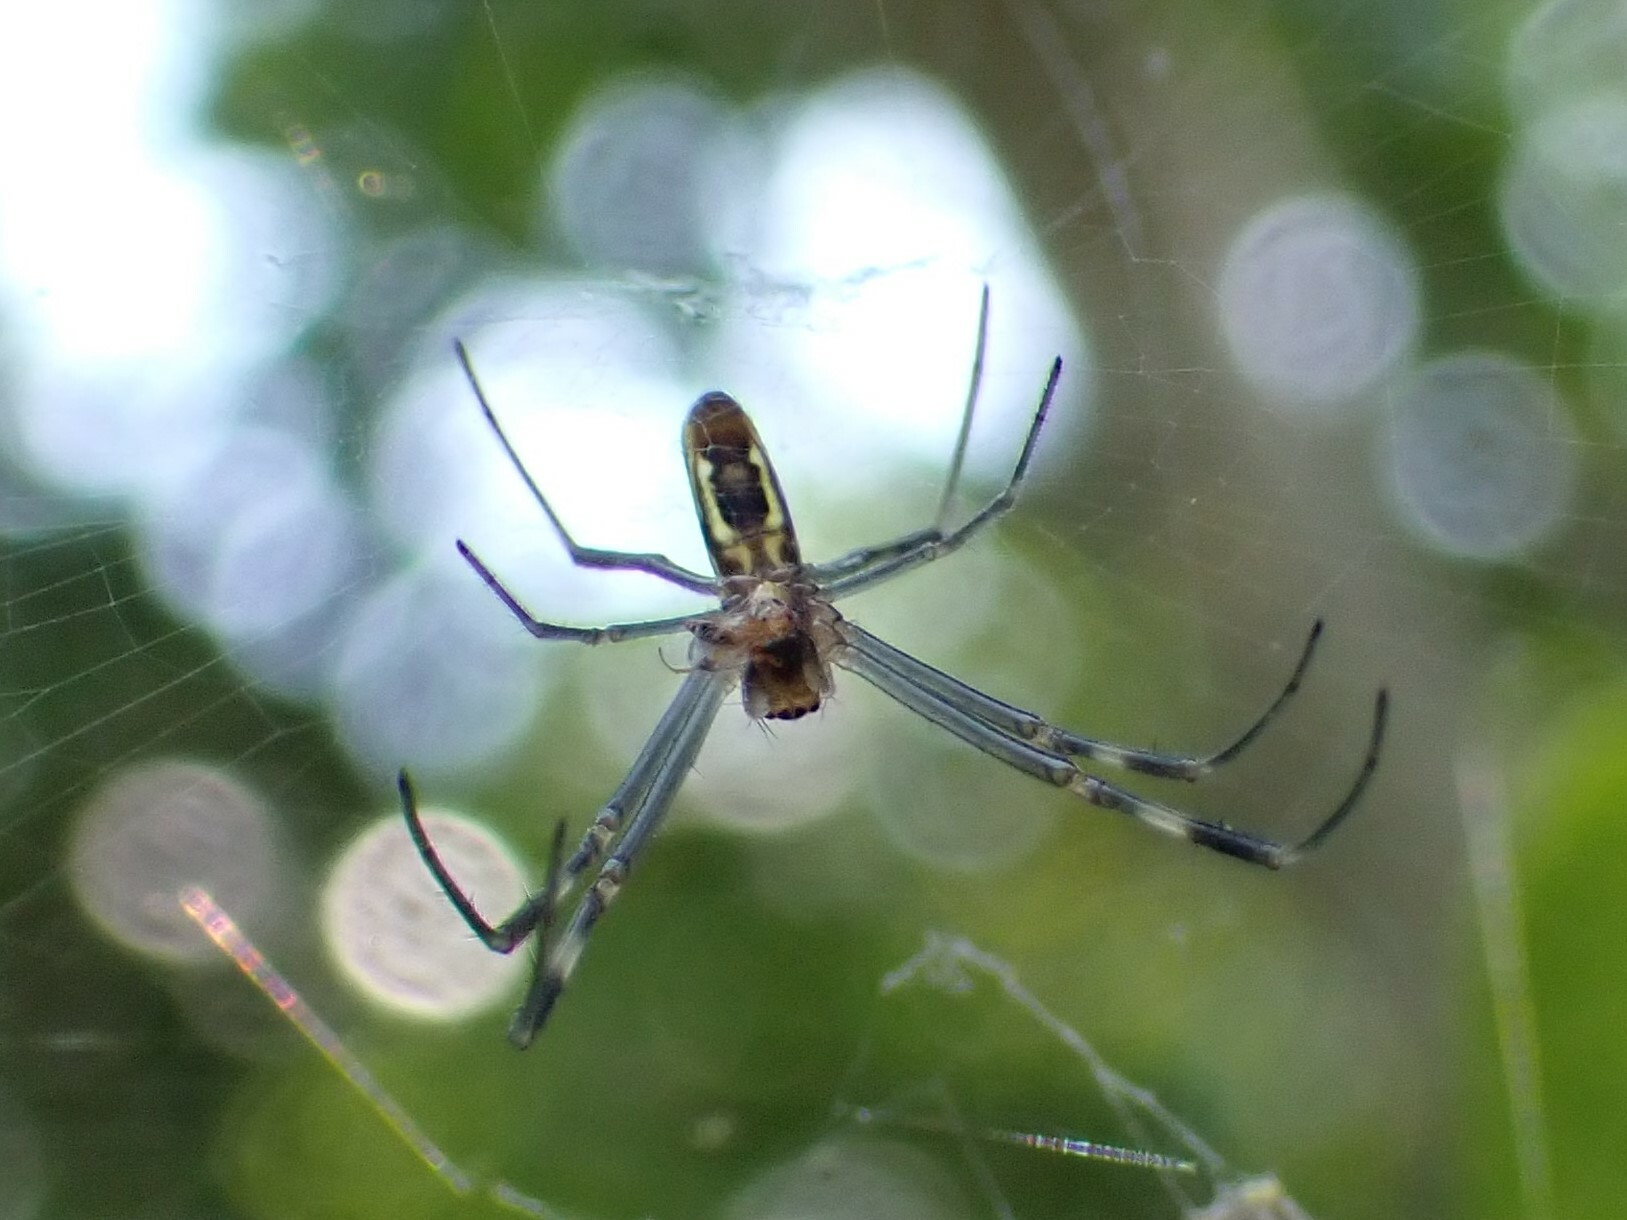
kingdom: Animalia
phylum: Arthropoda
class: Arachnida
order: Araneae
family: Araneidae
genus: Trichonephila
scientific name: Trichonephila clavipes
